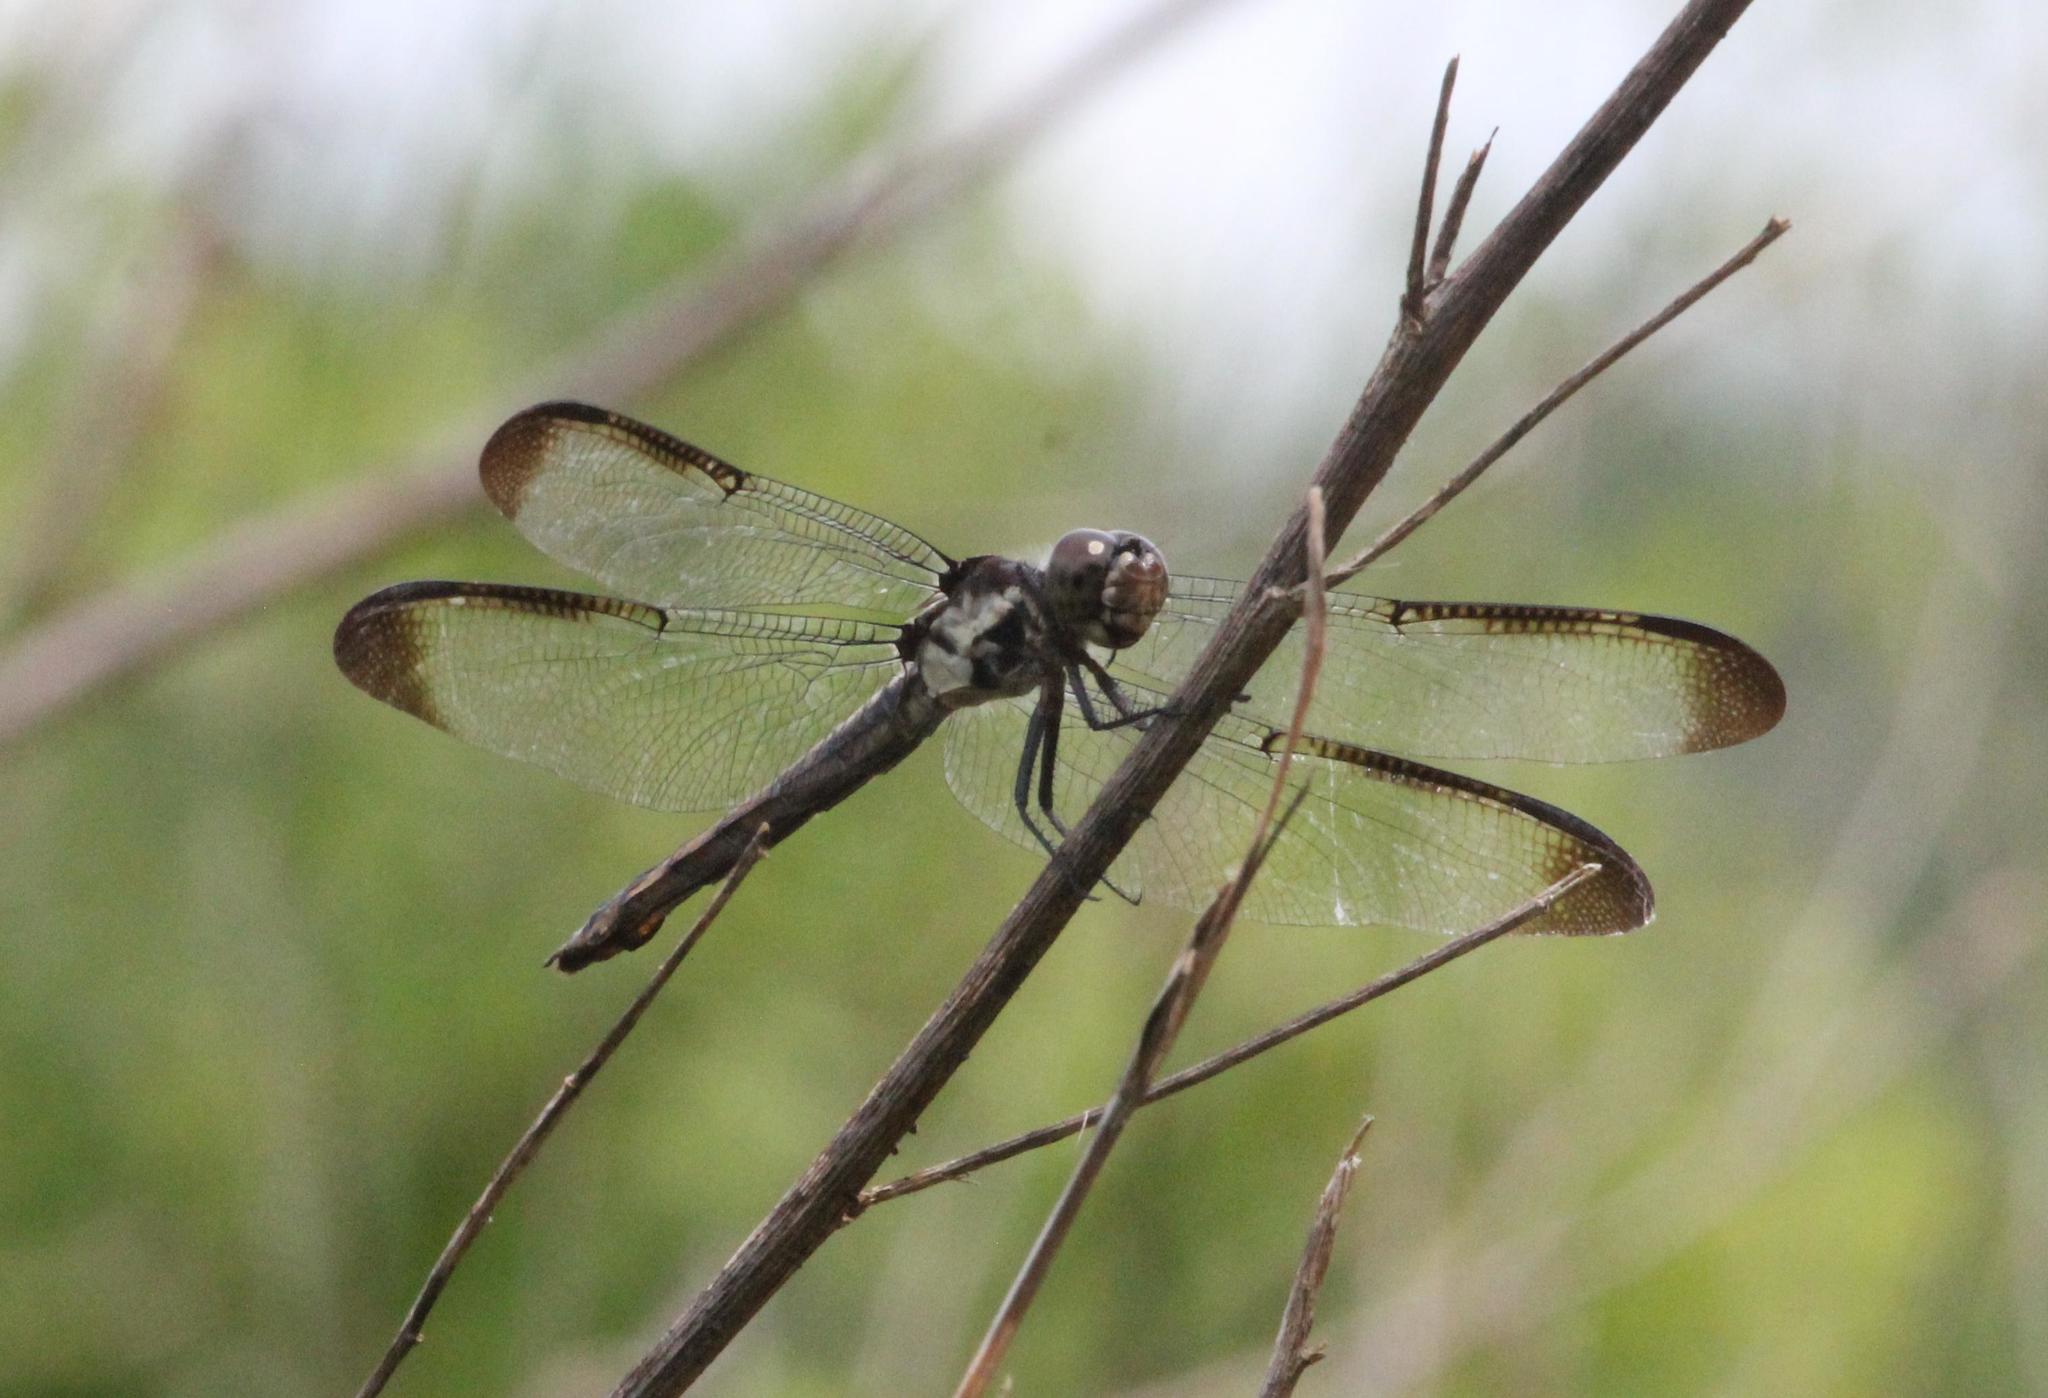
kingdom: Animalia
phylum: Arthropoda
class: Insecta
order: Odonata
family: Libellulidae
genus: Libellula
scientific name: Libellula incesta
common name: Slaty skimmer
